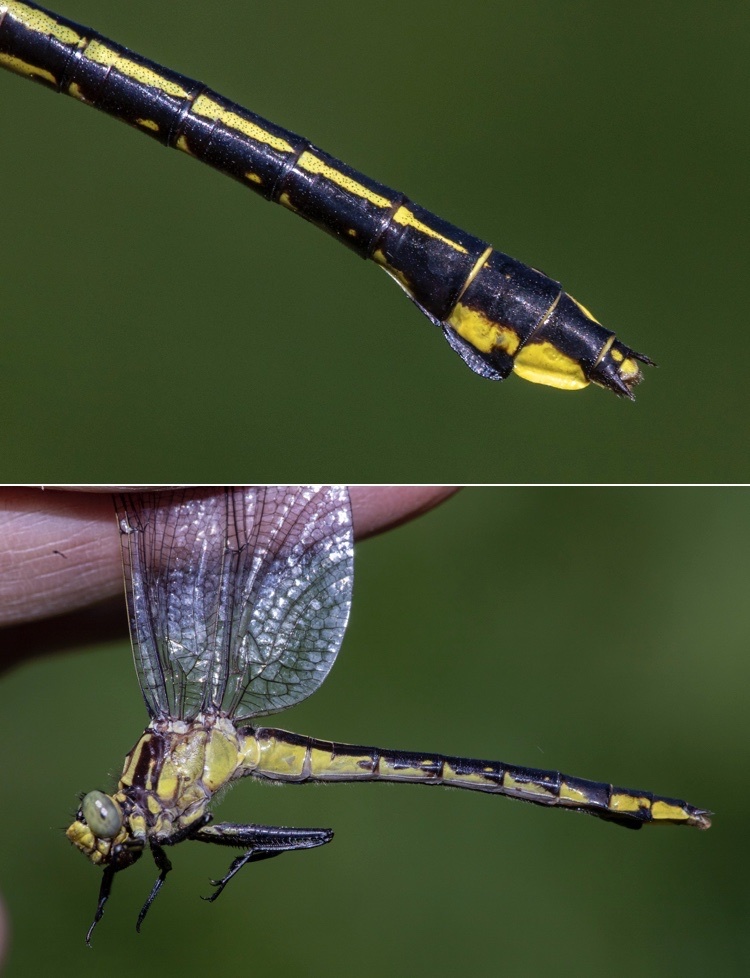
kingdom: Animalia
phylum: Arthropoda
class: Insecta
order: Odonata
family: Gomphidae
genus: Gomphurus
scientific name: Gomphurus ventricosus
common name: Skillet clubtail
